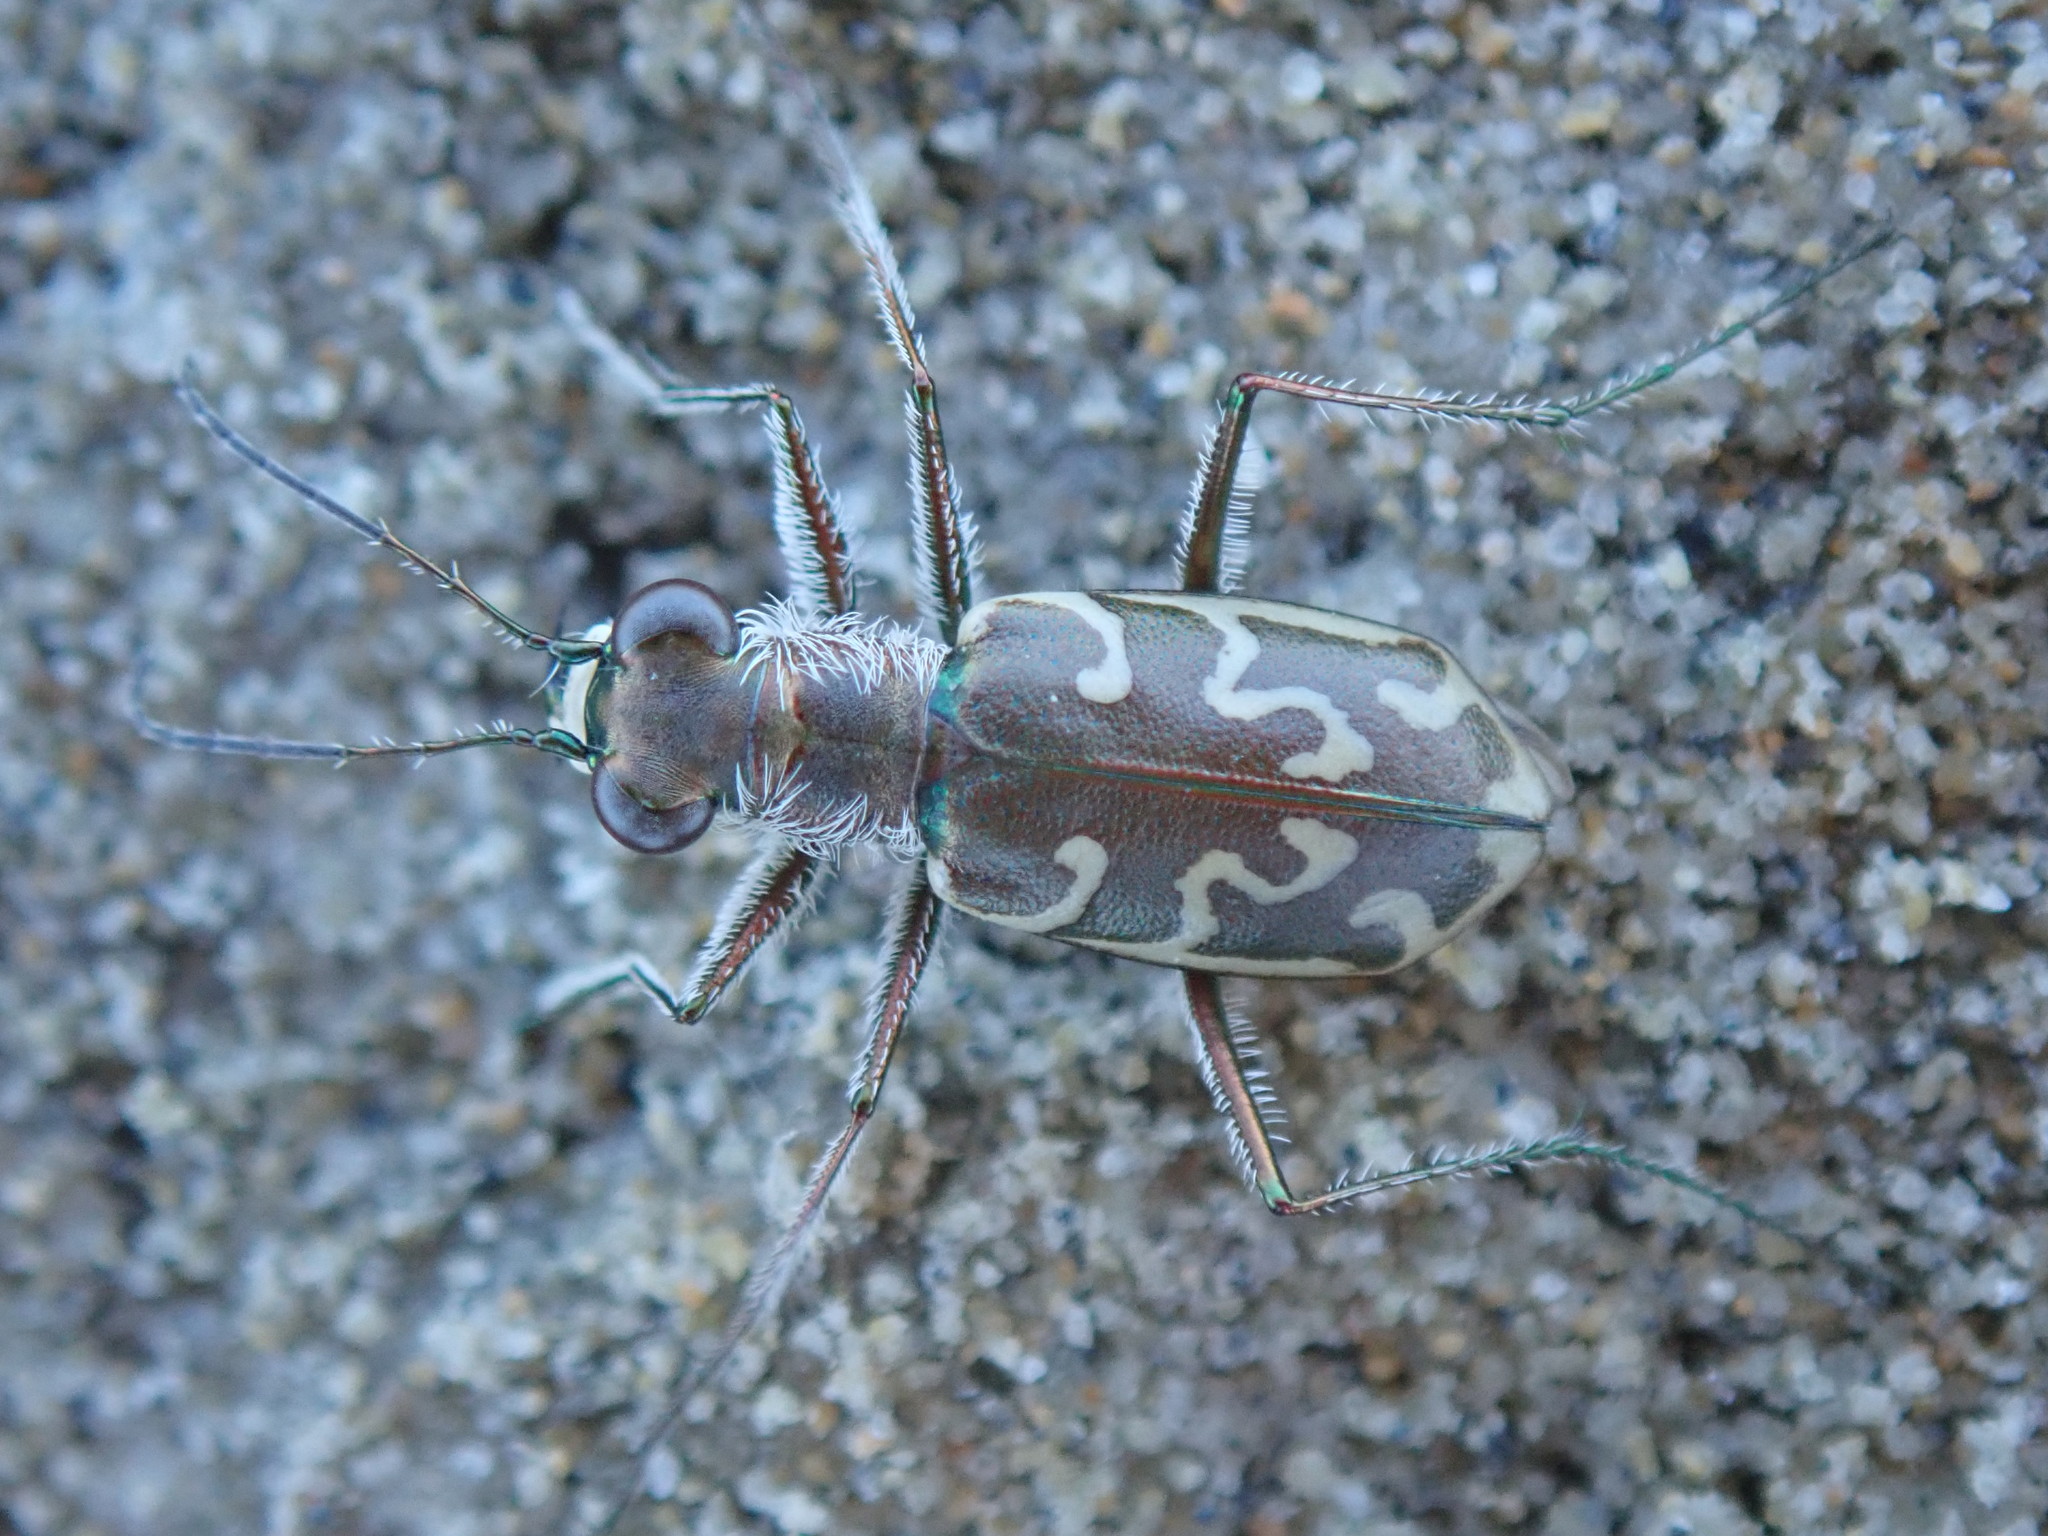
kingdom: Animalia
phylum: Arthropoda
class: Insecta
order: Coleoptera
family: Carabidae
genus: Cylindera
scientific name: Cylindera trisignata
